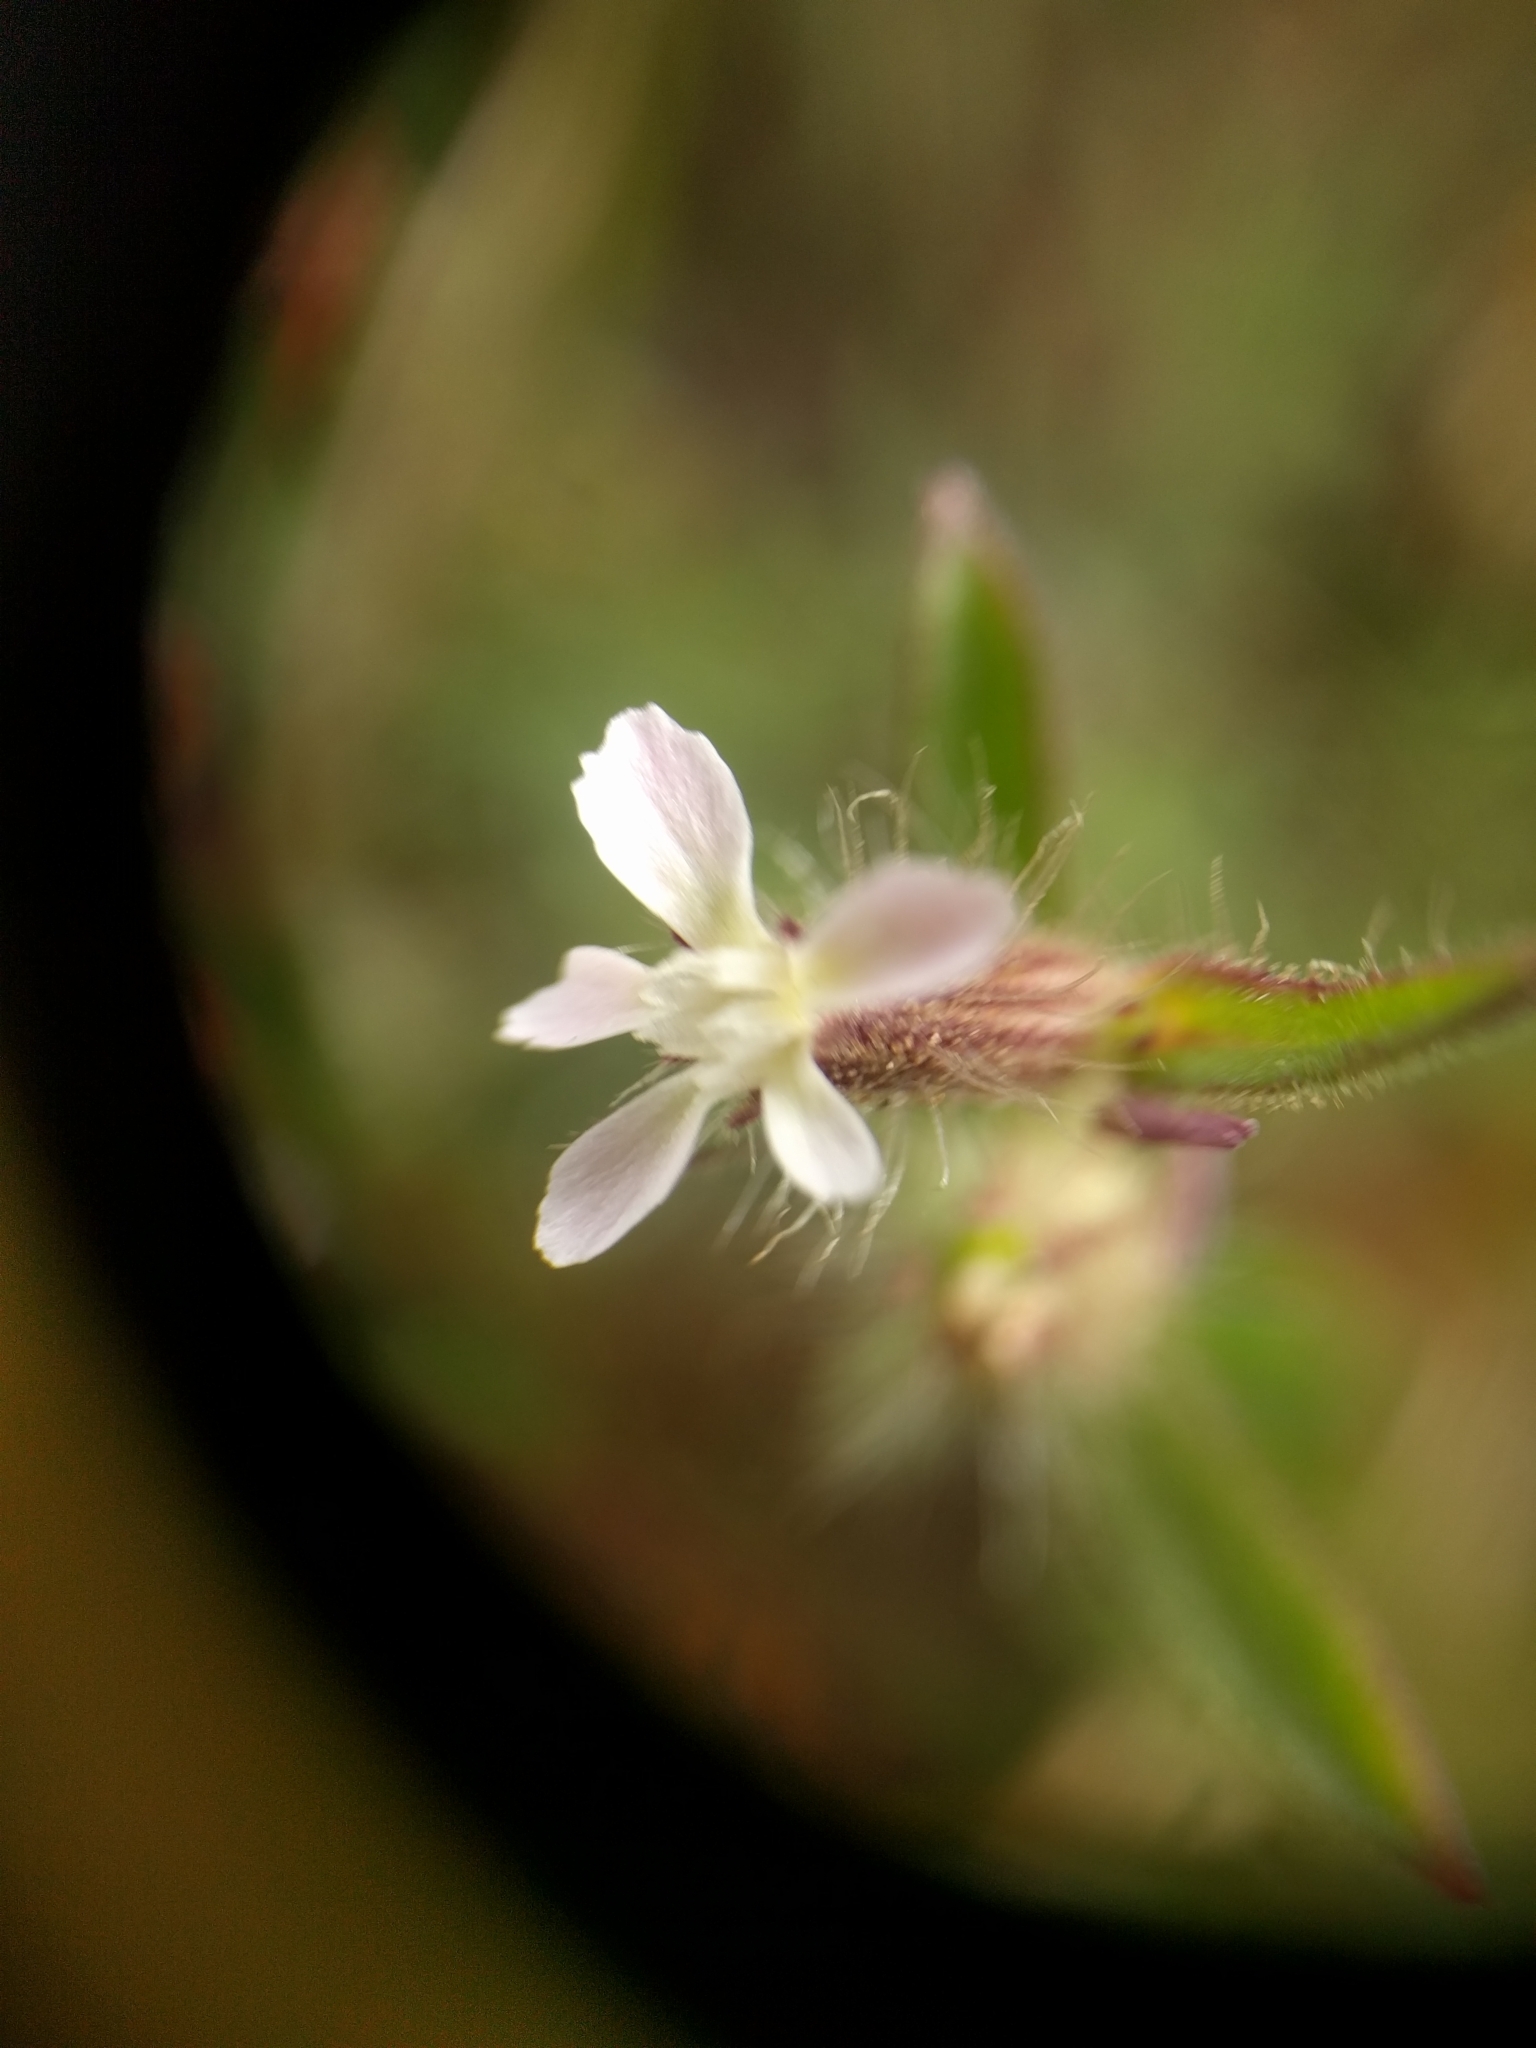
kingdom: Plantae
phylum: Tracheophyta
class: Magnoliopsida
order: Caryophyllales
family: Caryophyllaceae
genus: Silene
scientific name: Silene gallica
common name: Small-flowered catchfly
